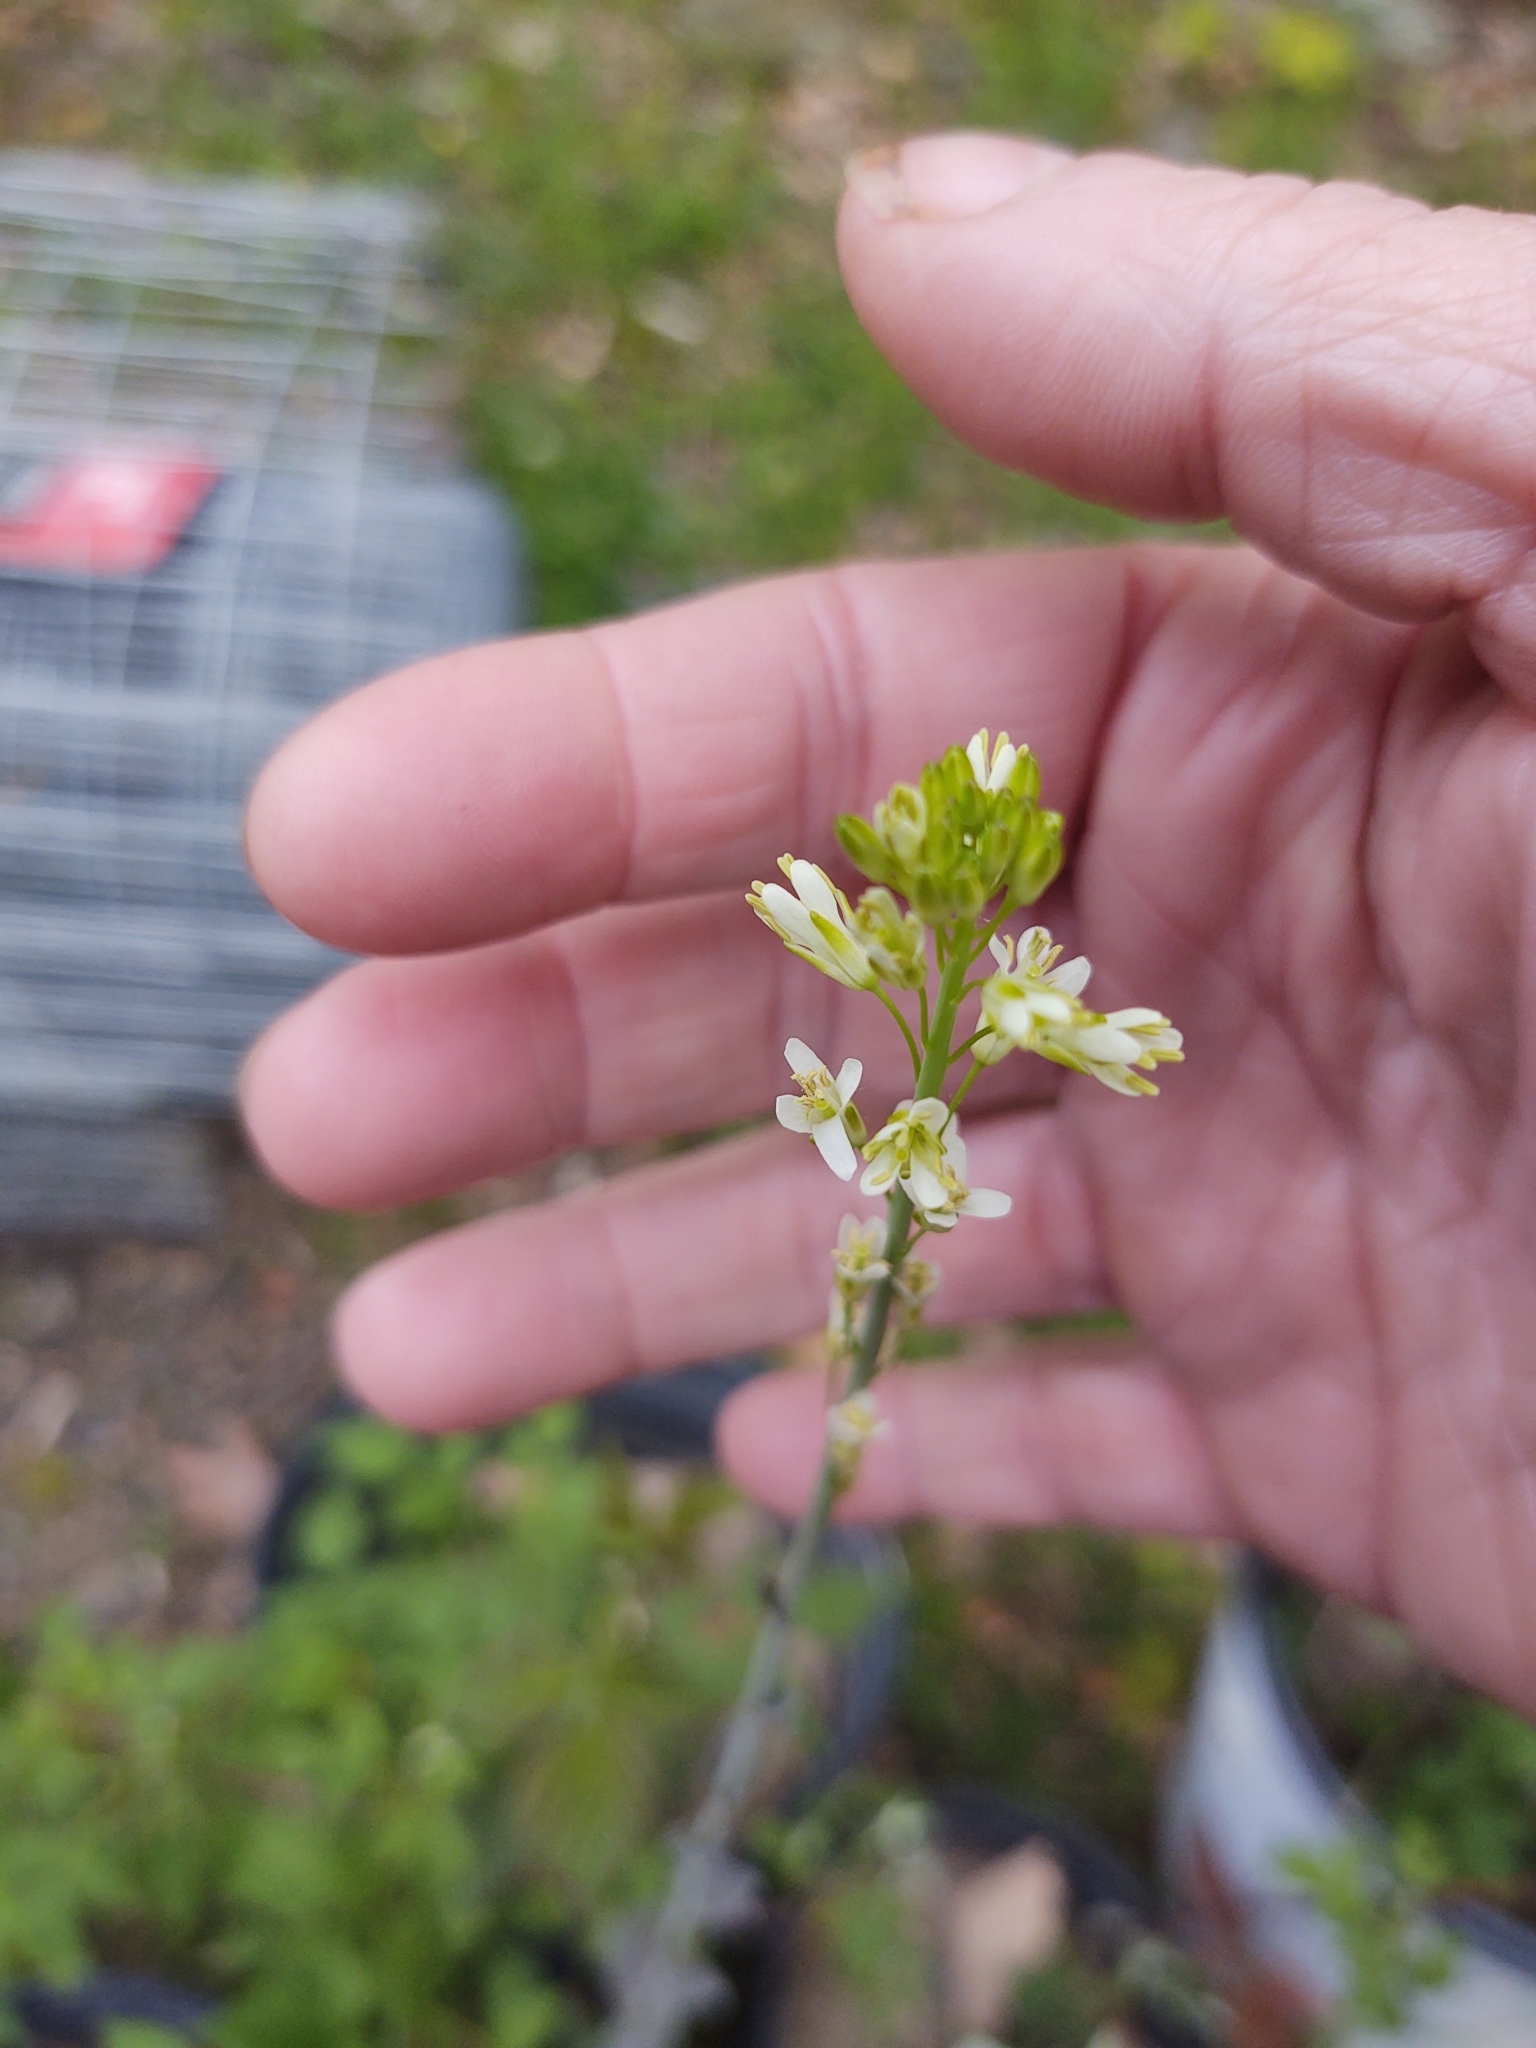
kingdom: Plantae
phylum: Tracheophyta
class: Magnoliopsida
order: Brassicales
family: Brassicaceae
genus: Turritis
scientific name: Turritis glabra
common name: Tower rockcress
